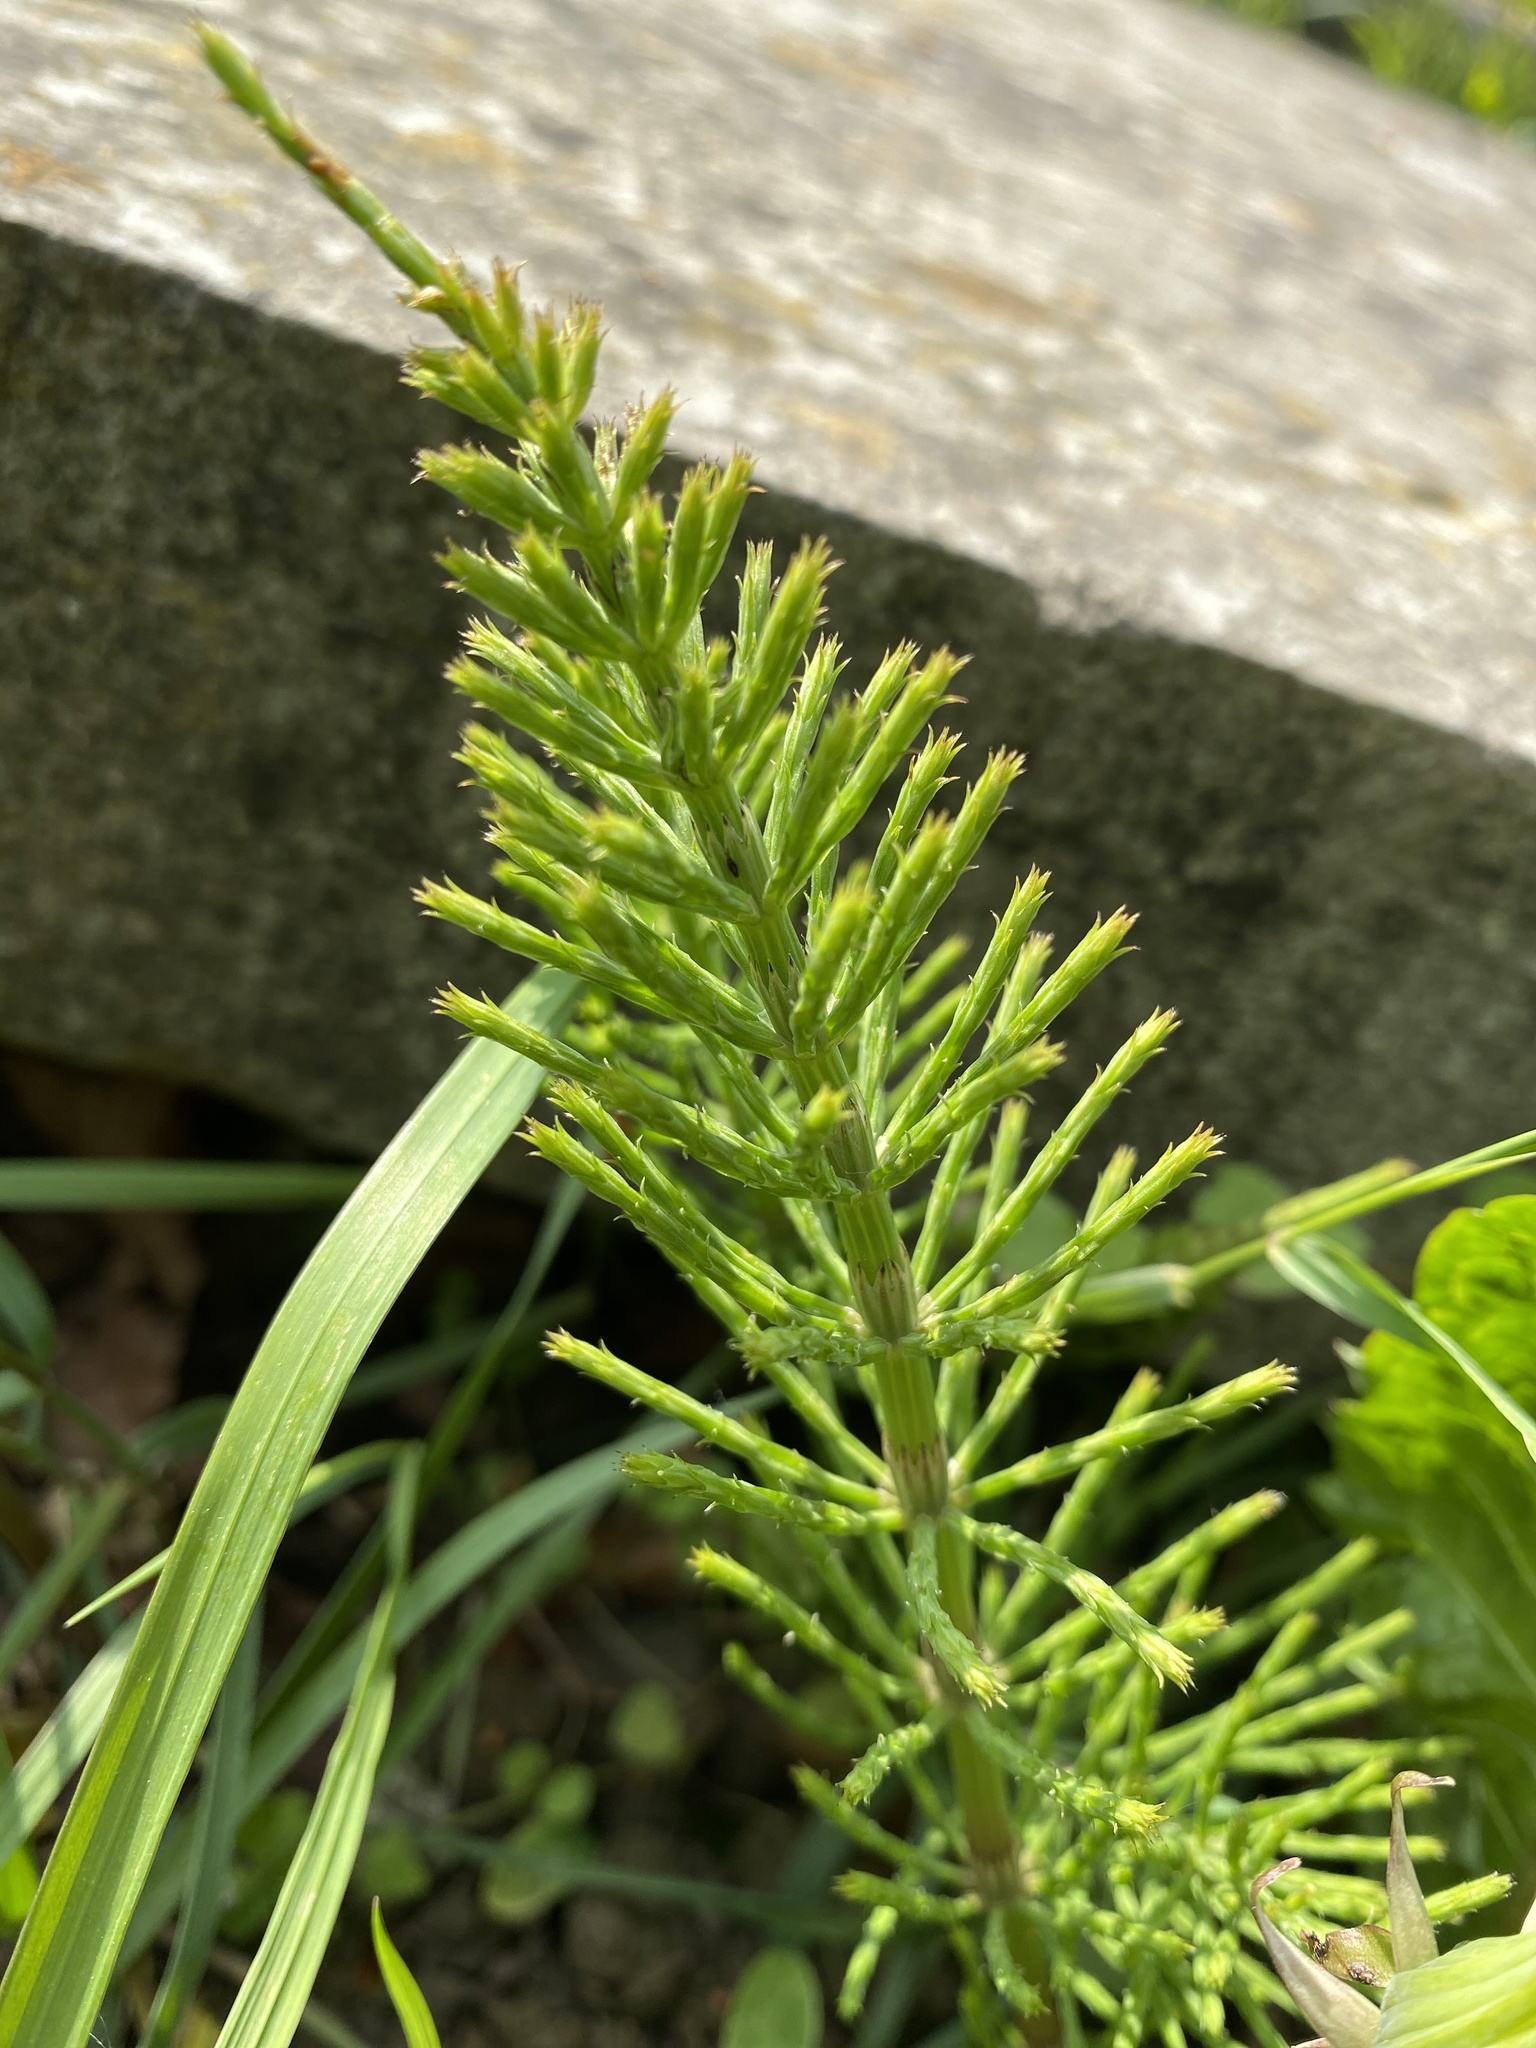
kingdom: Plantae
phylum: Tracheophyta
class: Polypodiopsida
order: Equisetales
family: Equisetaceae
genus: Equisetum
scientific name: Equisetum arvense
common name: Field horsetail
